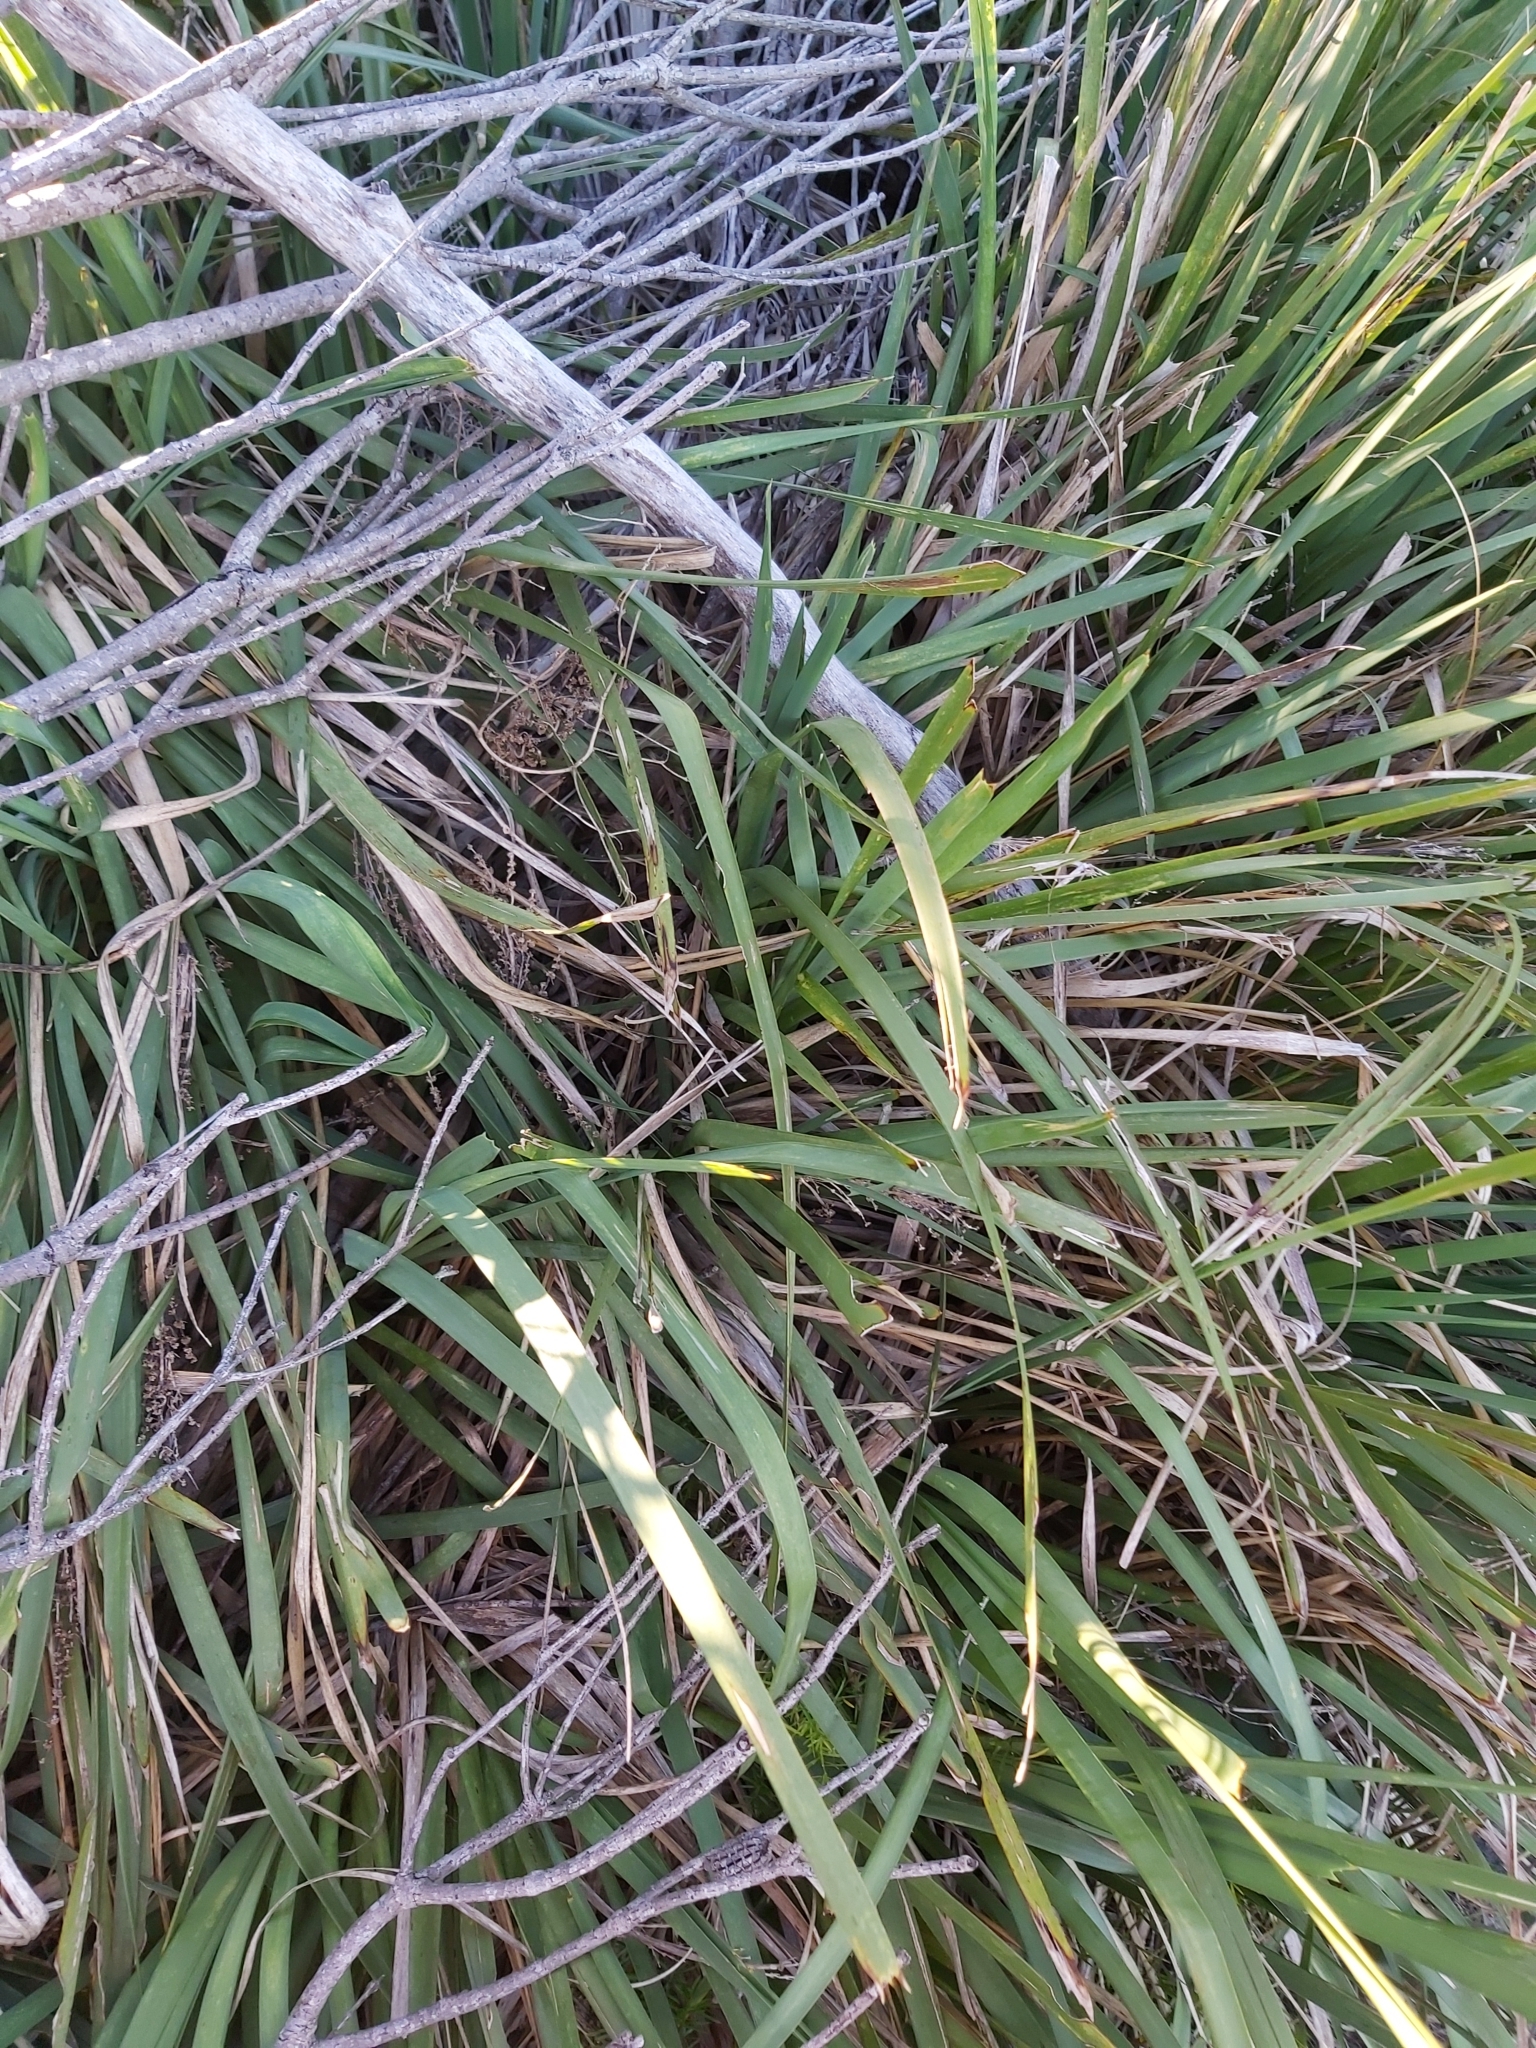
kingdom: Plantae
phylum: Tracheophyta
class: Liliopsida
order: Asparagales
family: Asparagaceae
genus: Lomandra
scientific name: Lomandra longifolia
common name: Longleaf mat-rush
